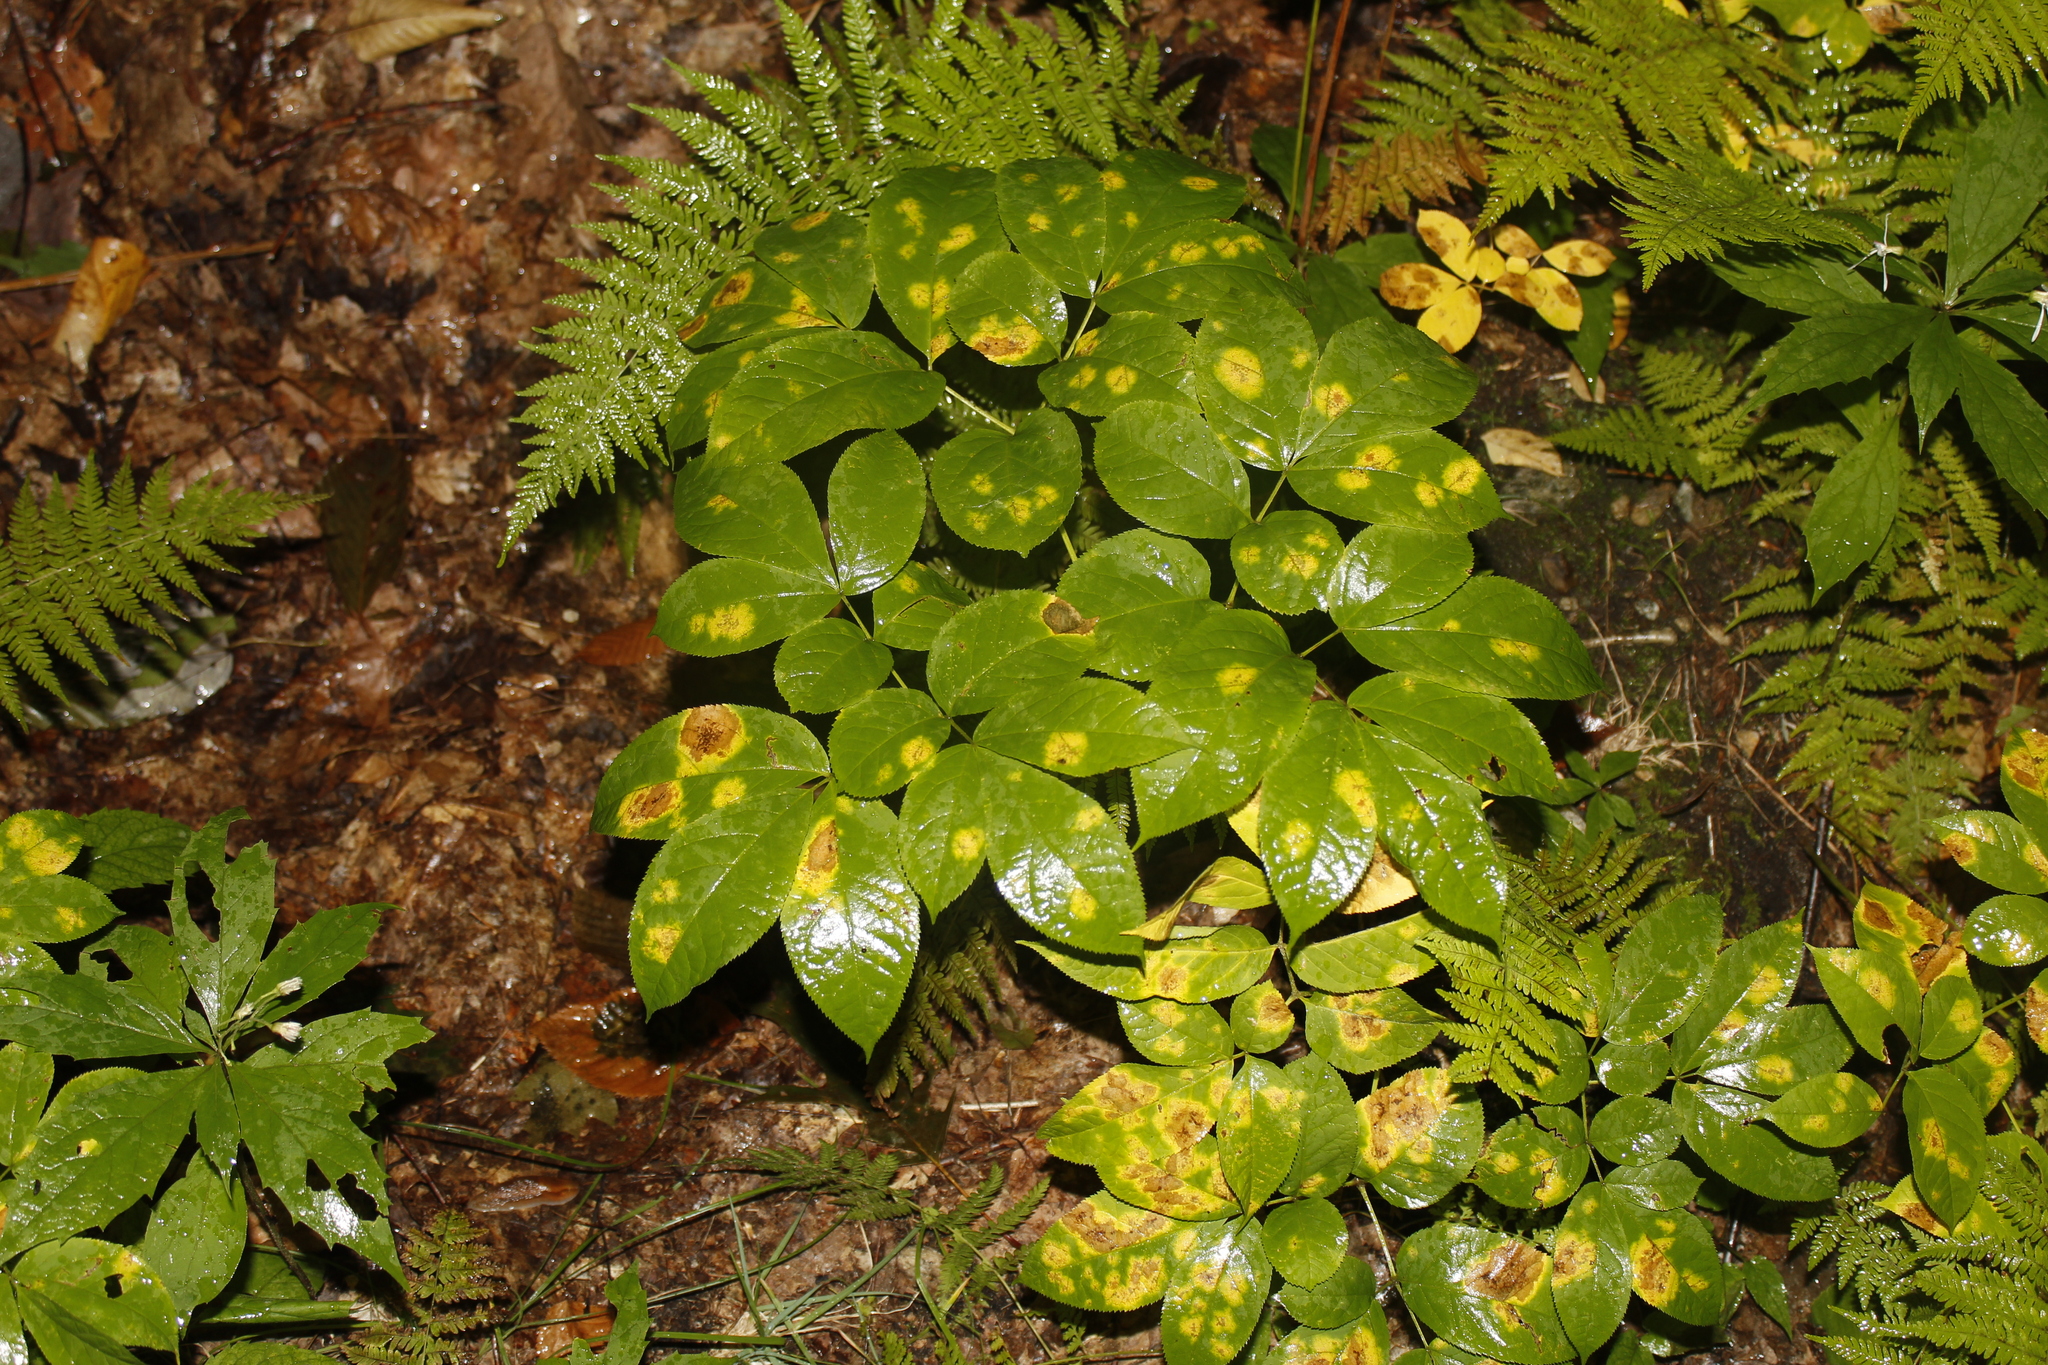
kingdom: Plantae
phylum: Tracheophyta
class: Magnoliopsida
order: Apiales
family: Araliaceae
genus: Aralia
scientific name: Aralia nudicaulis
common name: Wild sarsaparilla
